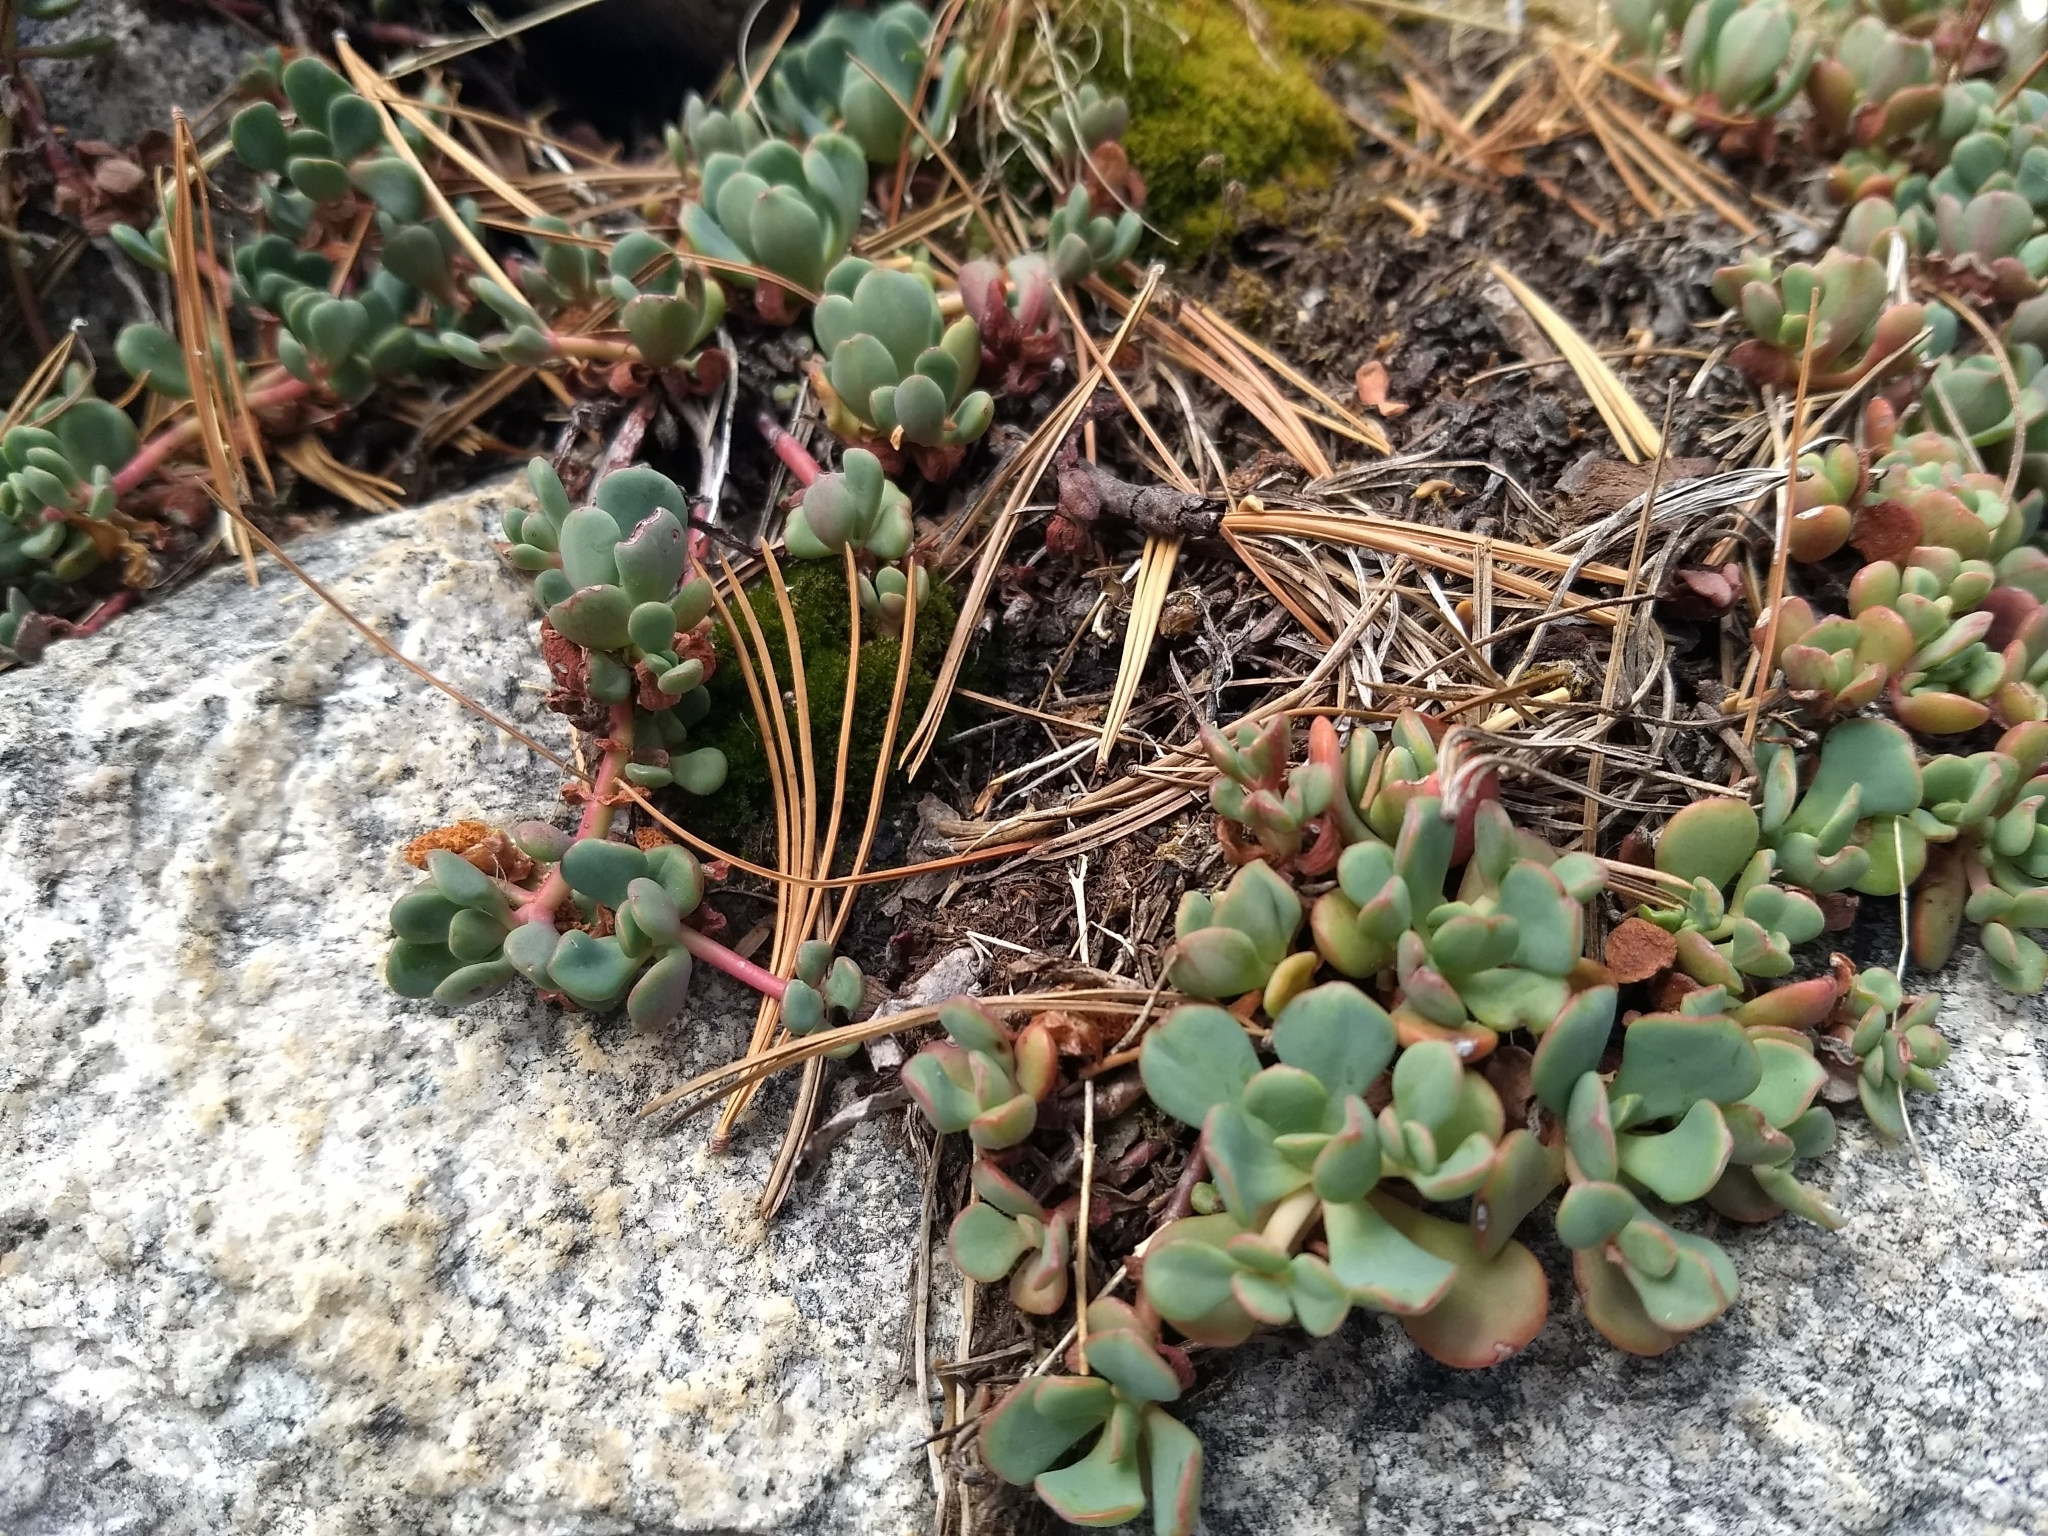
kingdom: Plantae
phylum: Tracheophyta
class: Magnoliopsida
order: Saxifragales
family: Crassulaceae
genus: Sedum
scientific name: Sedum obtusatum
